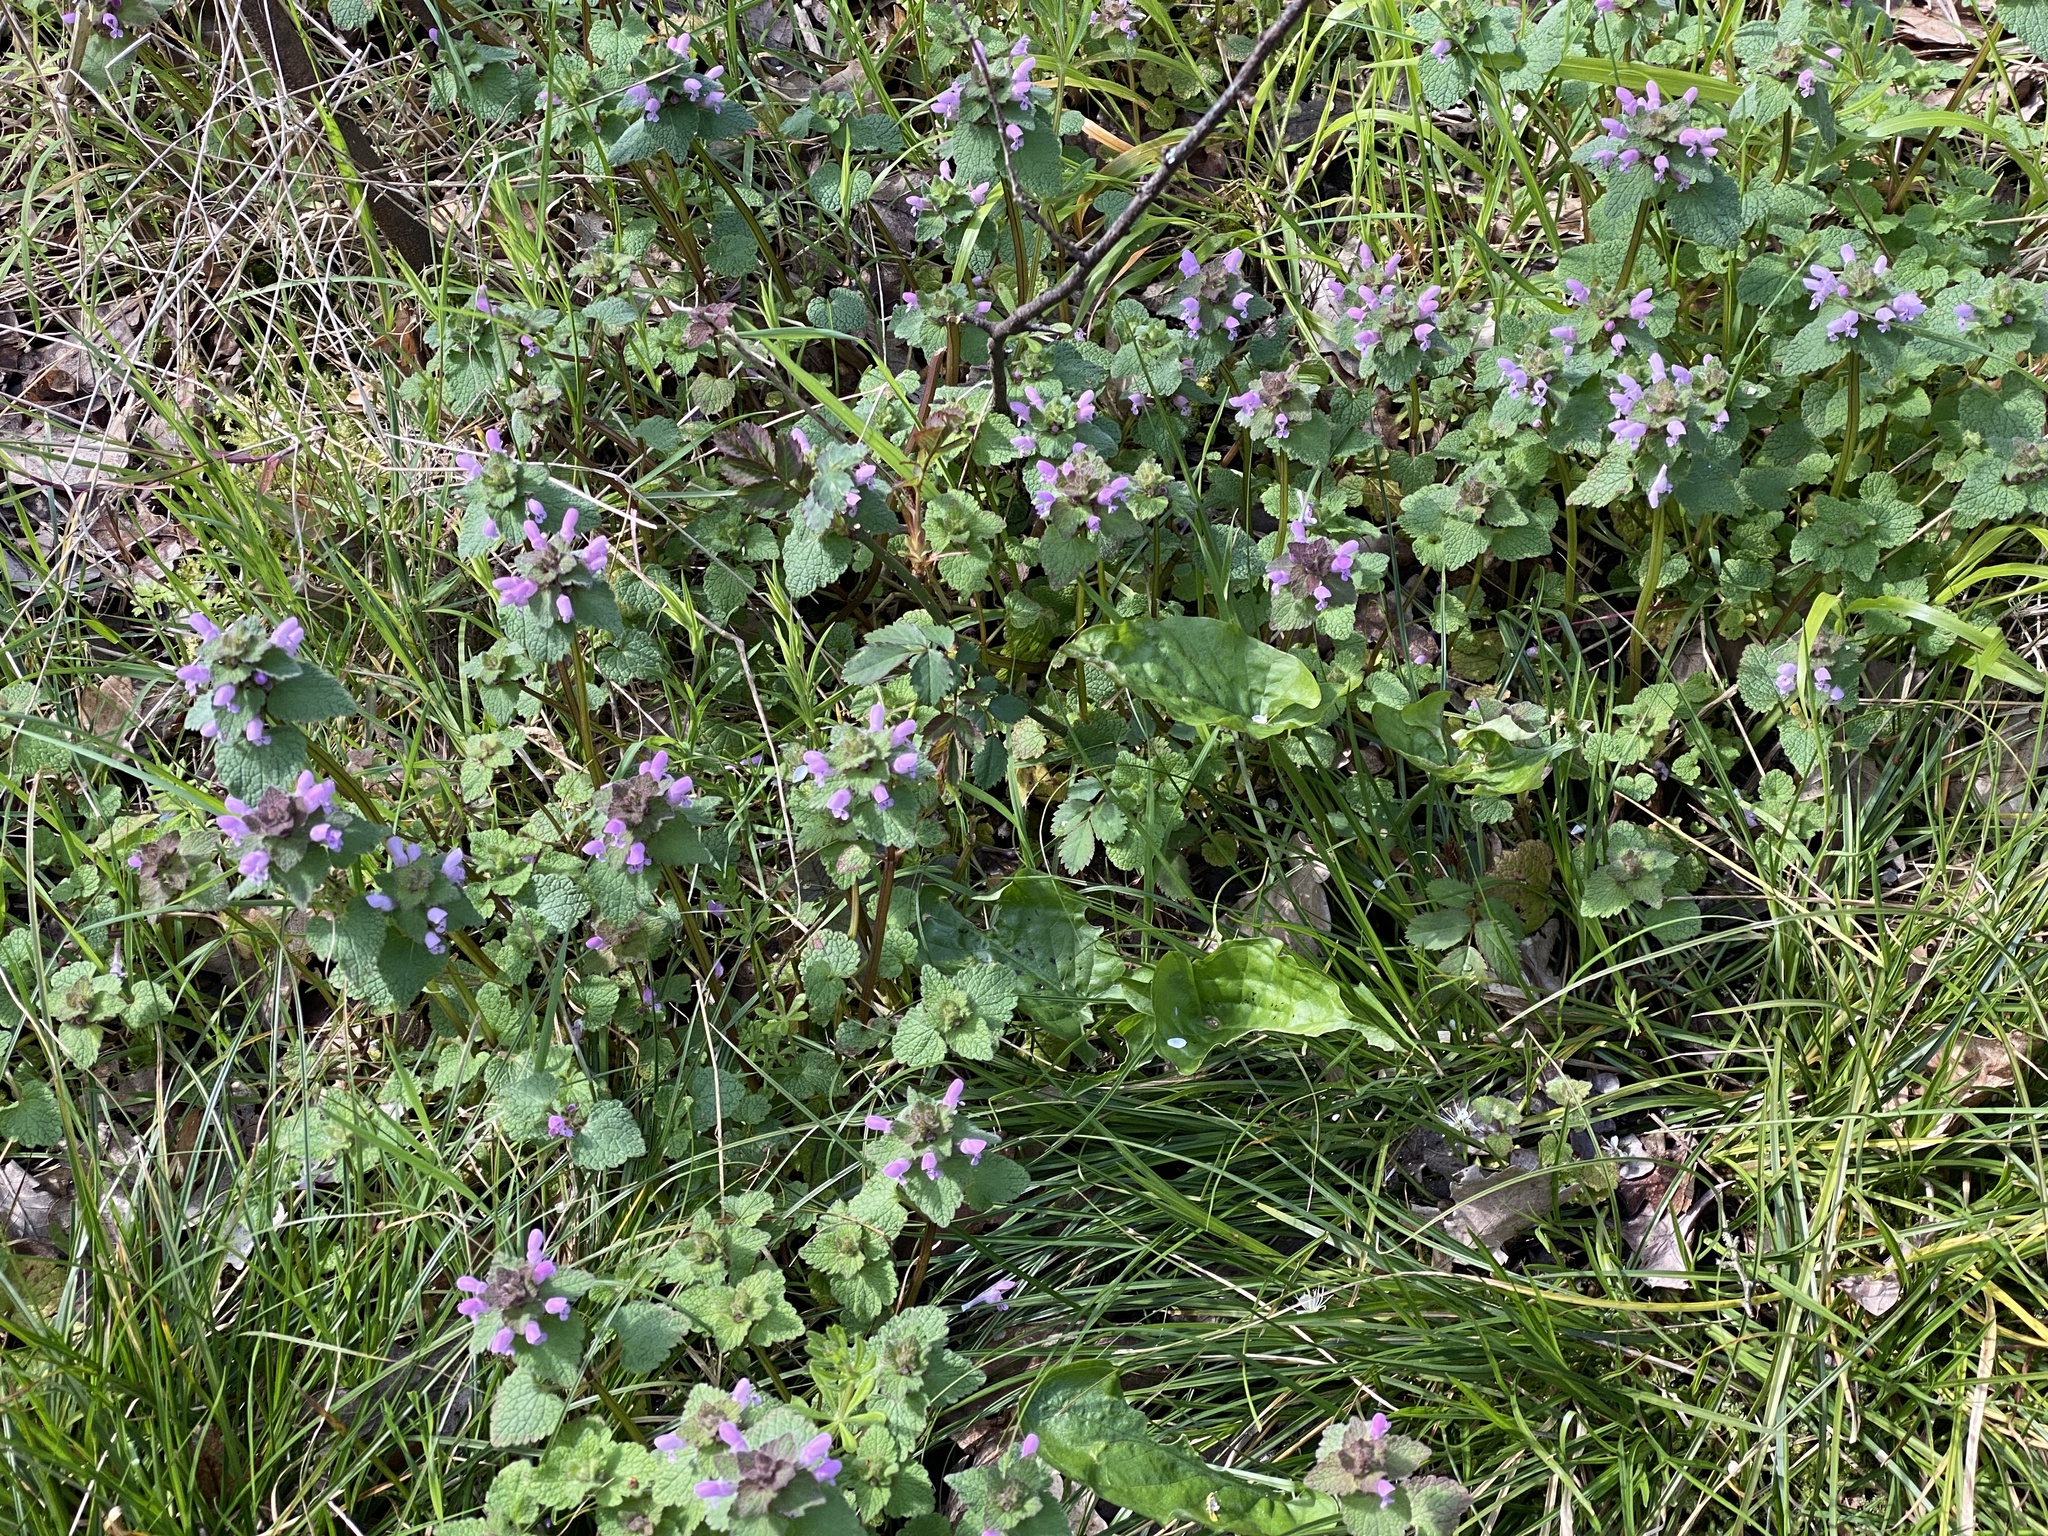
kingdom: Plantae
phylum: Tracheophyta
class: Magnoliopsida
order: Lamiales
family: Lamiaceae
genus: Lamium
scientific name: Lamium purpureum
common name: Red dead-nettle
